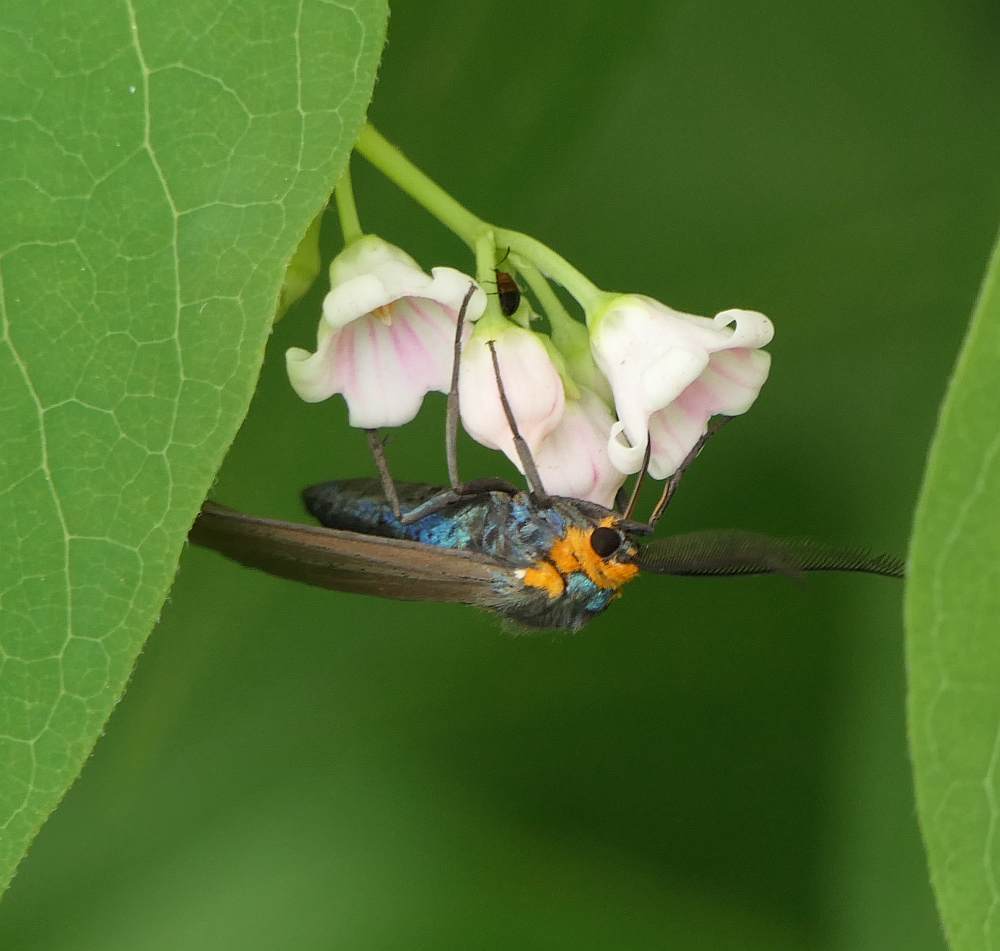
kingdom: Animalia
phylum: Arthropoda
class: Insecta
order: Lepidoptera
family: Erebidae
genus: Ctenucha
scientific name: Ctenucha virginica
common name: Virginia ctenucha moth
